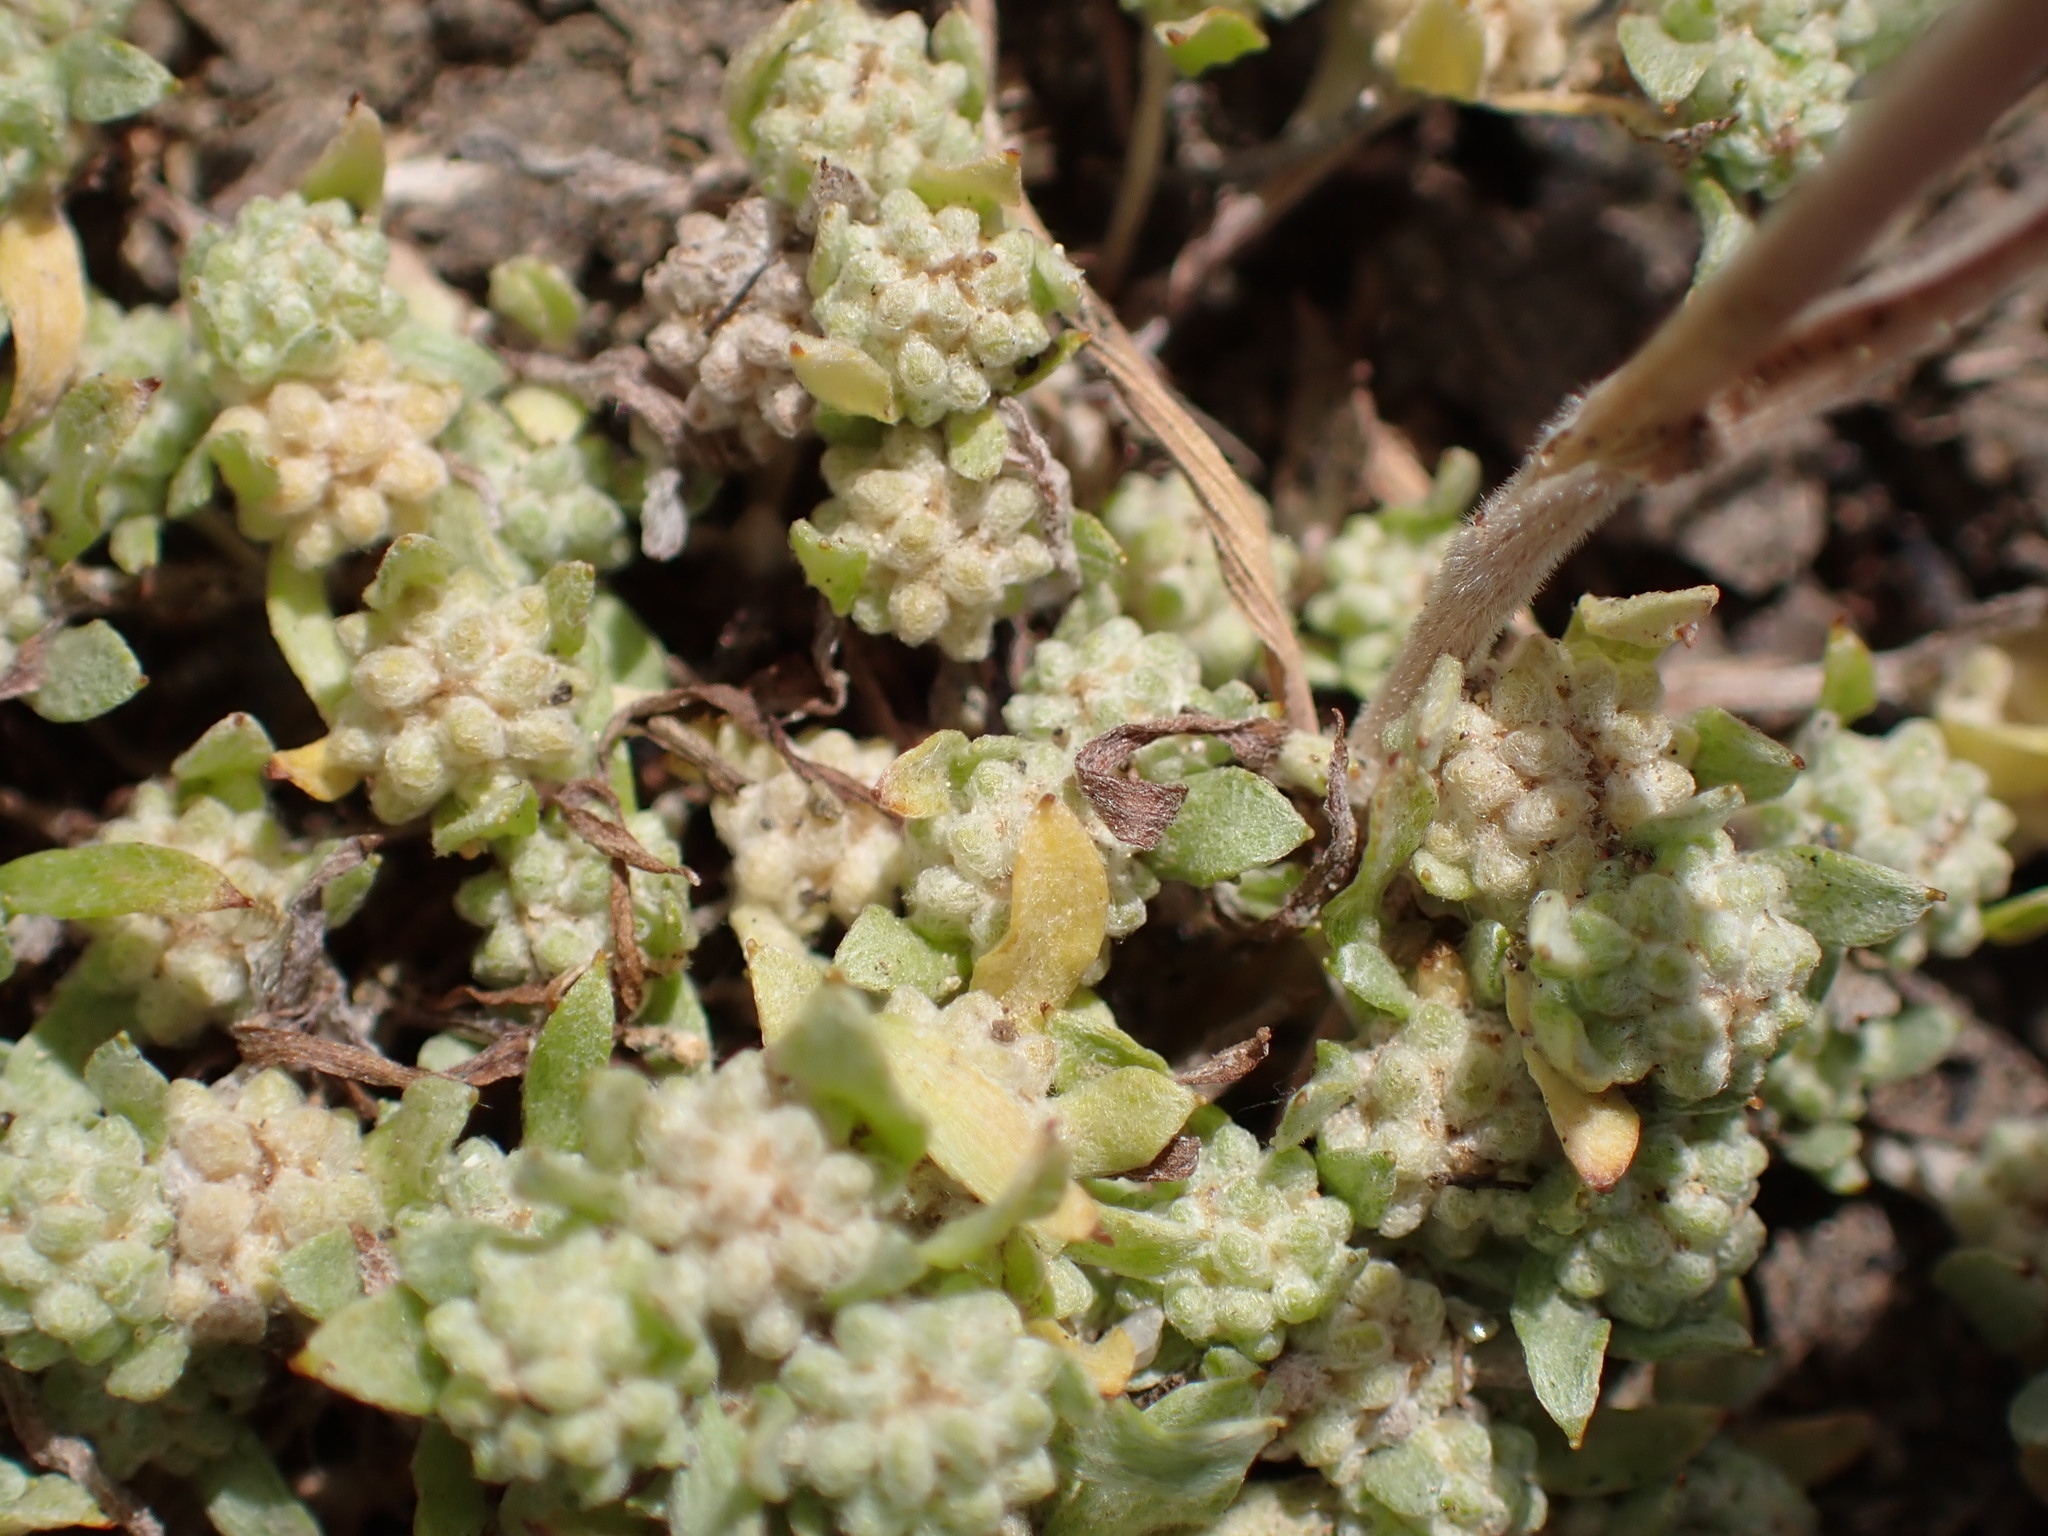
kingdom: Plantae
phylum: Tracheophyta
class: Magnoliopsida
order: Asterales
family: Asteraceae
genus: Psilocarphus
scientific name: Psilocarphus tenellus
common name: Slender woolly-marbles
